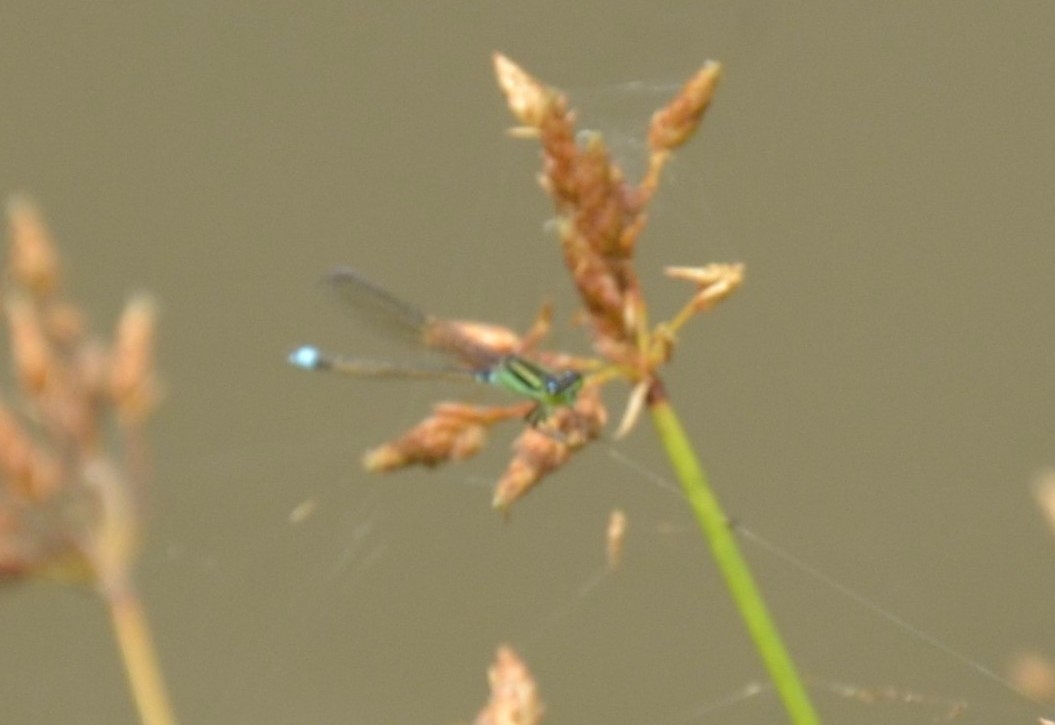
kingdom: Animalia
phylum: Arthropoda
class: Insecta
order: Odonata
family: Coenagrionidae
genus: Ischnura
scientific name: Ischnura senegalensis
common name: Tropical bluetail
